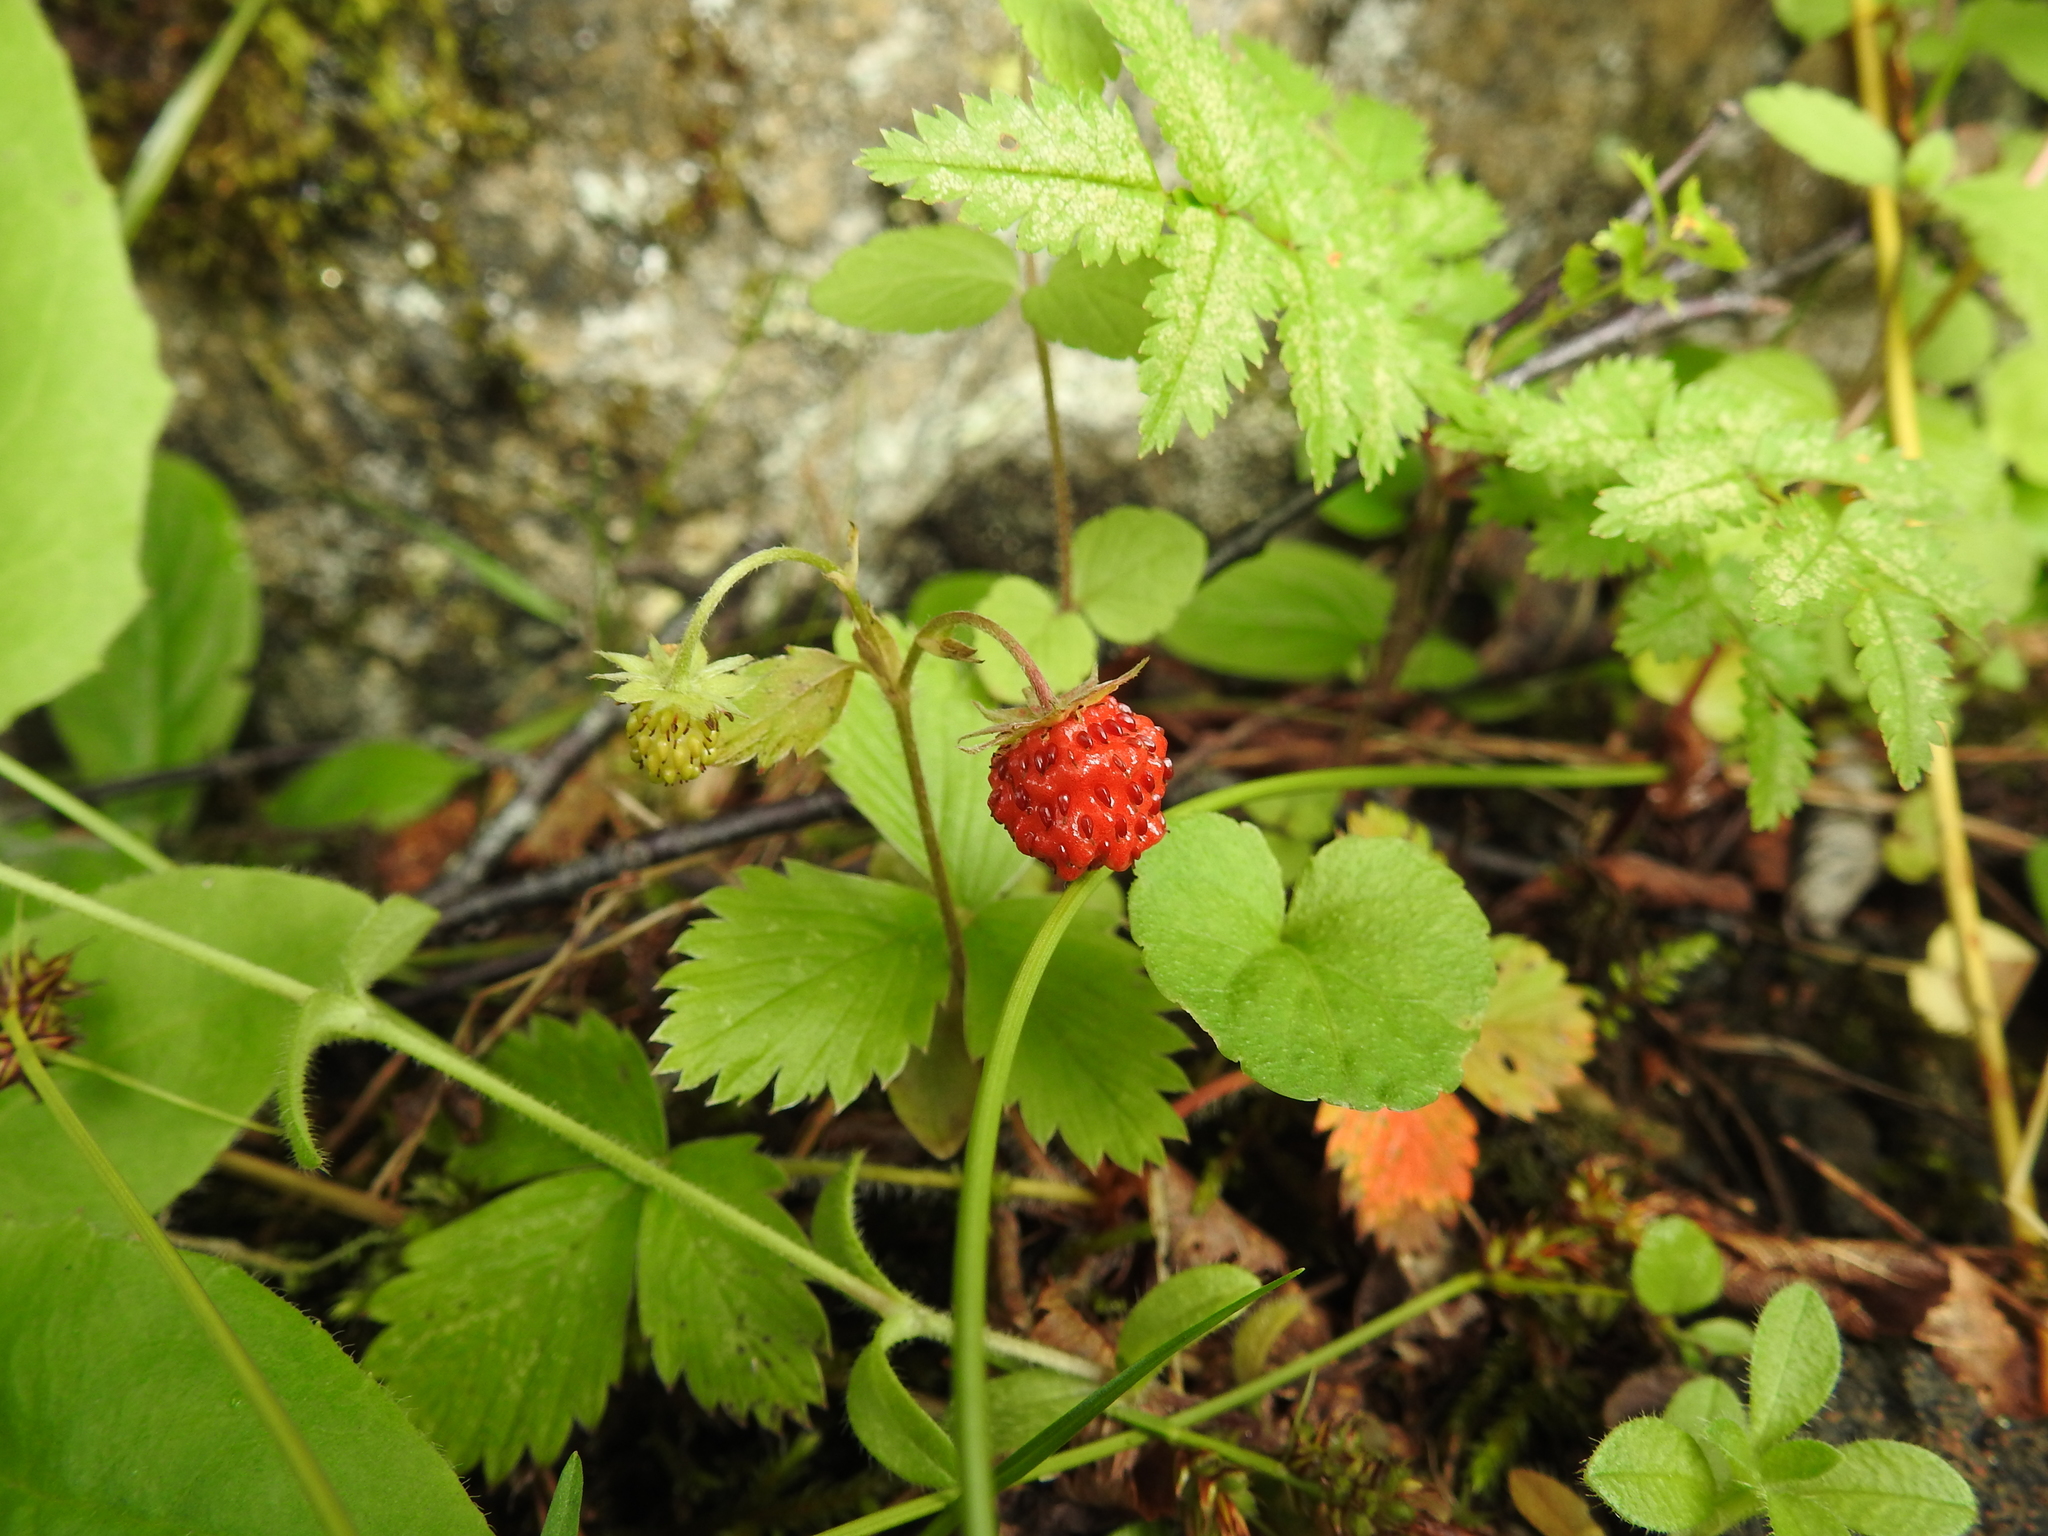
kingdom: Plantae
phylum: Tracheophyta
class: Magnoliopsida
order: Rosales
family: Rosaceae
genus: Fragaria
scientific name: Fragaria vesca
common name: Wild strawberry
